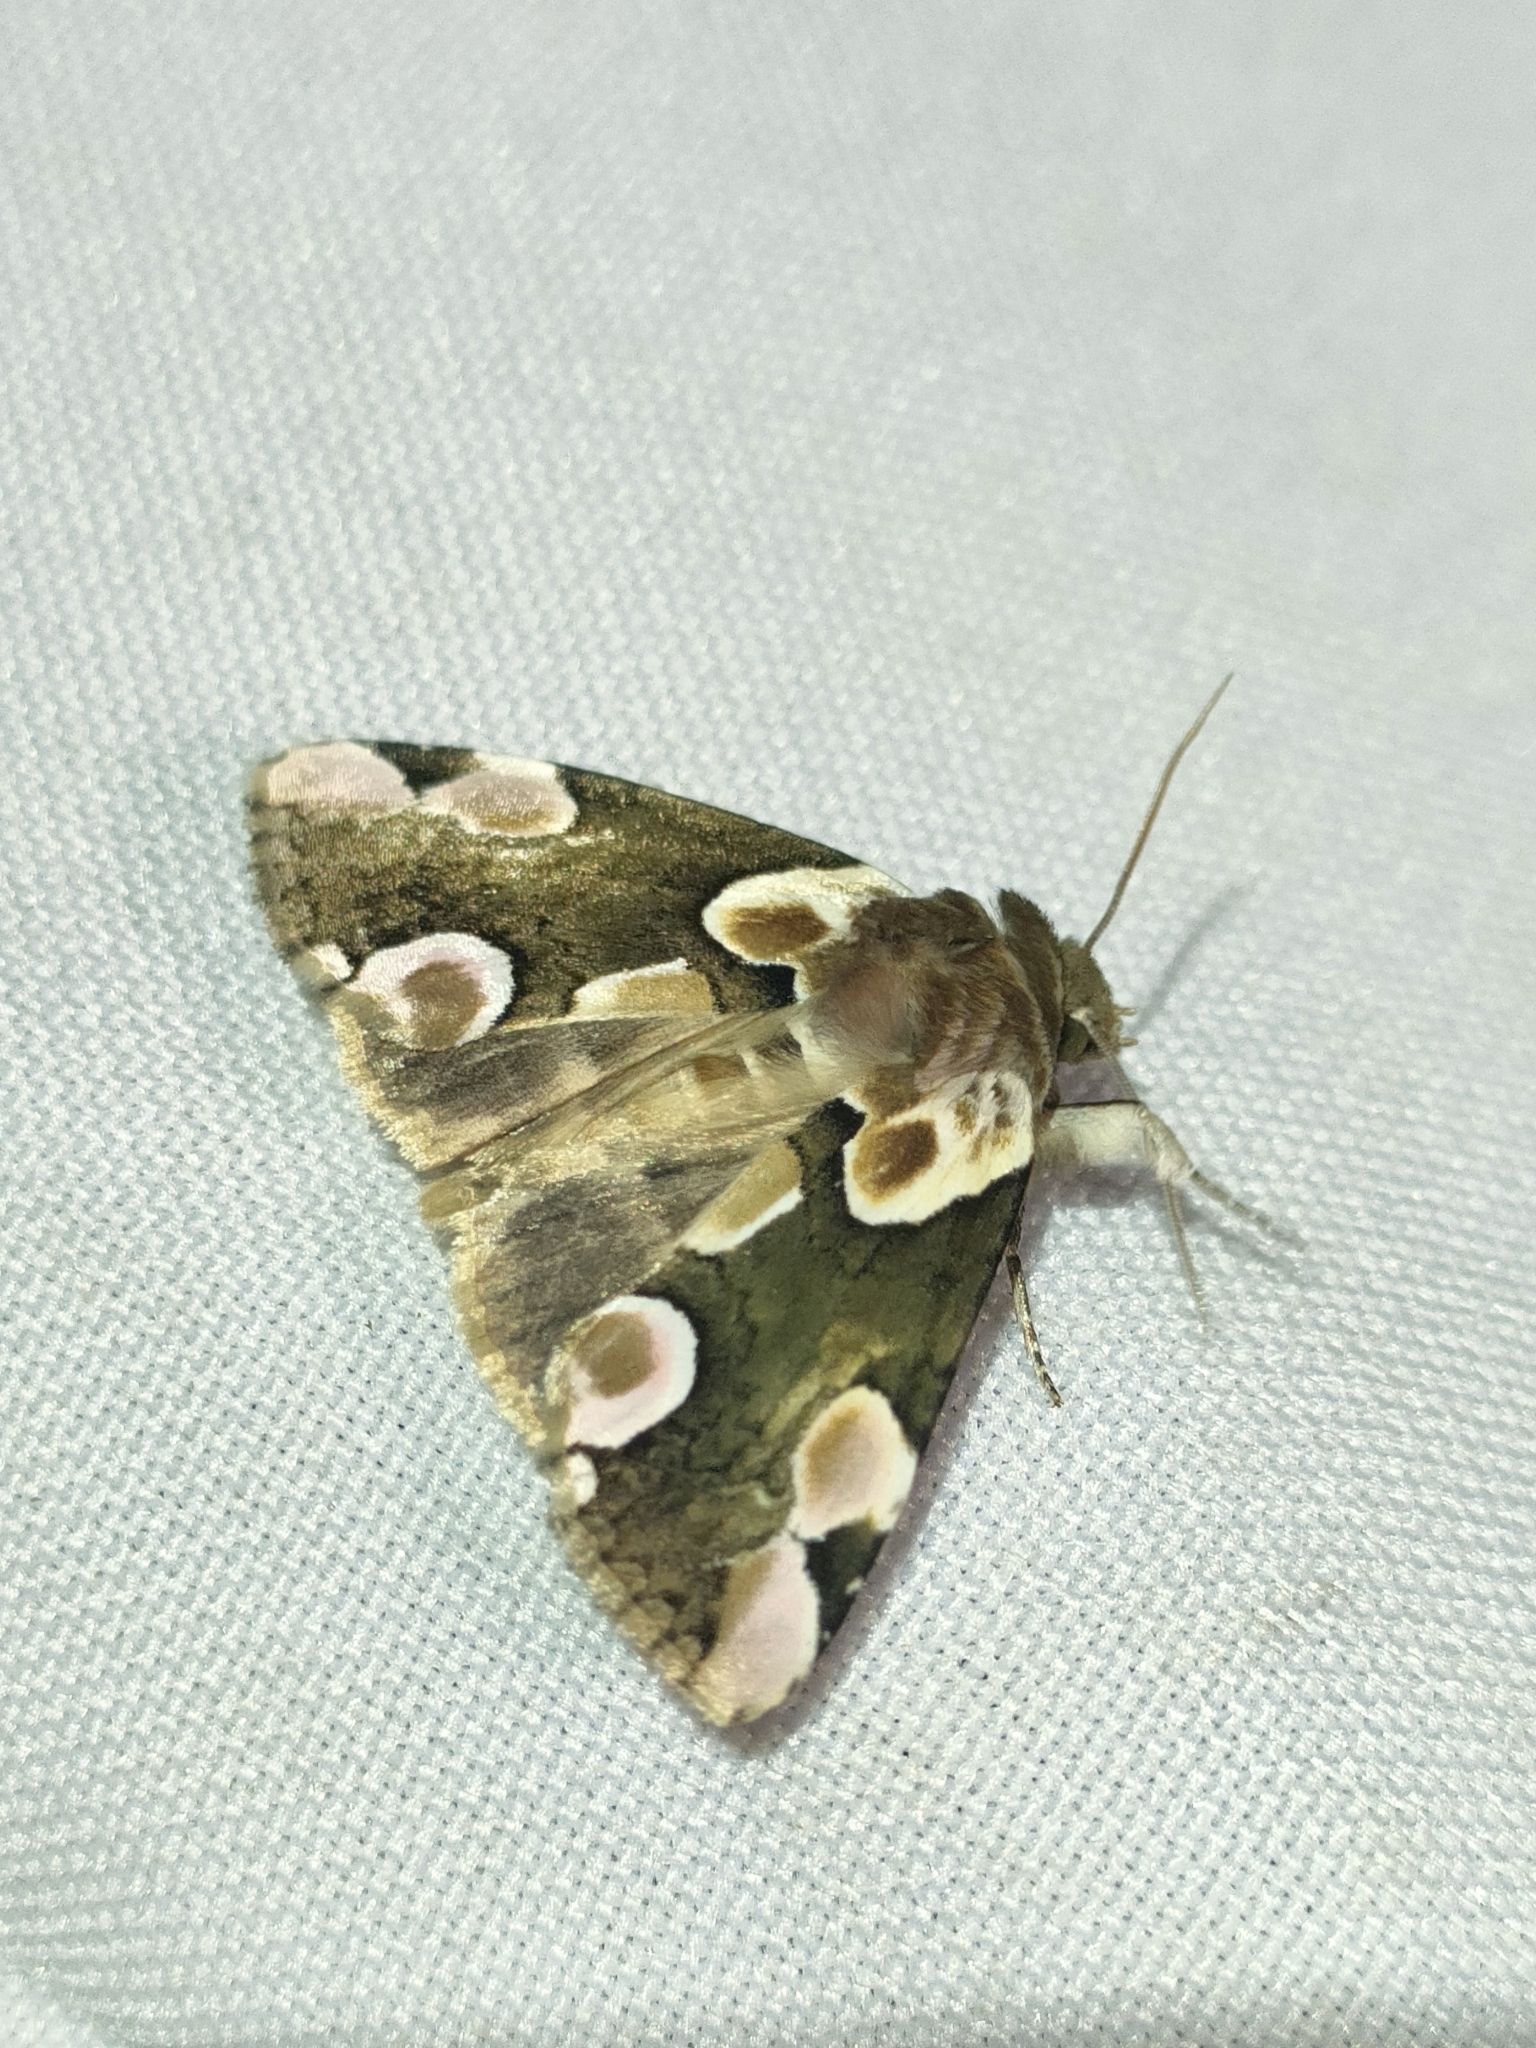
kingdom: Animalia
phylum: Arthropoda
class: Insecta
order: Lepidoptera
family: Drepanidae
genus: Thyatira
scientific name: Thyatira batis
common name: Peach blossom
